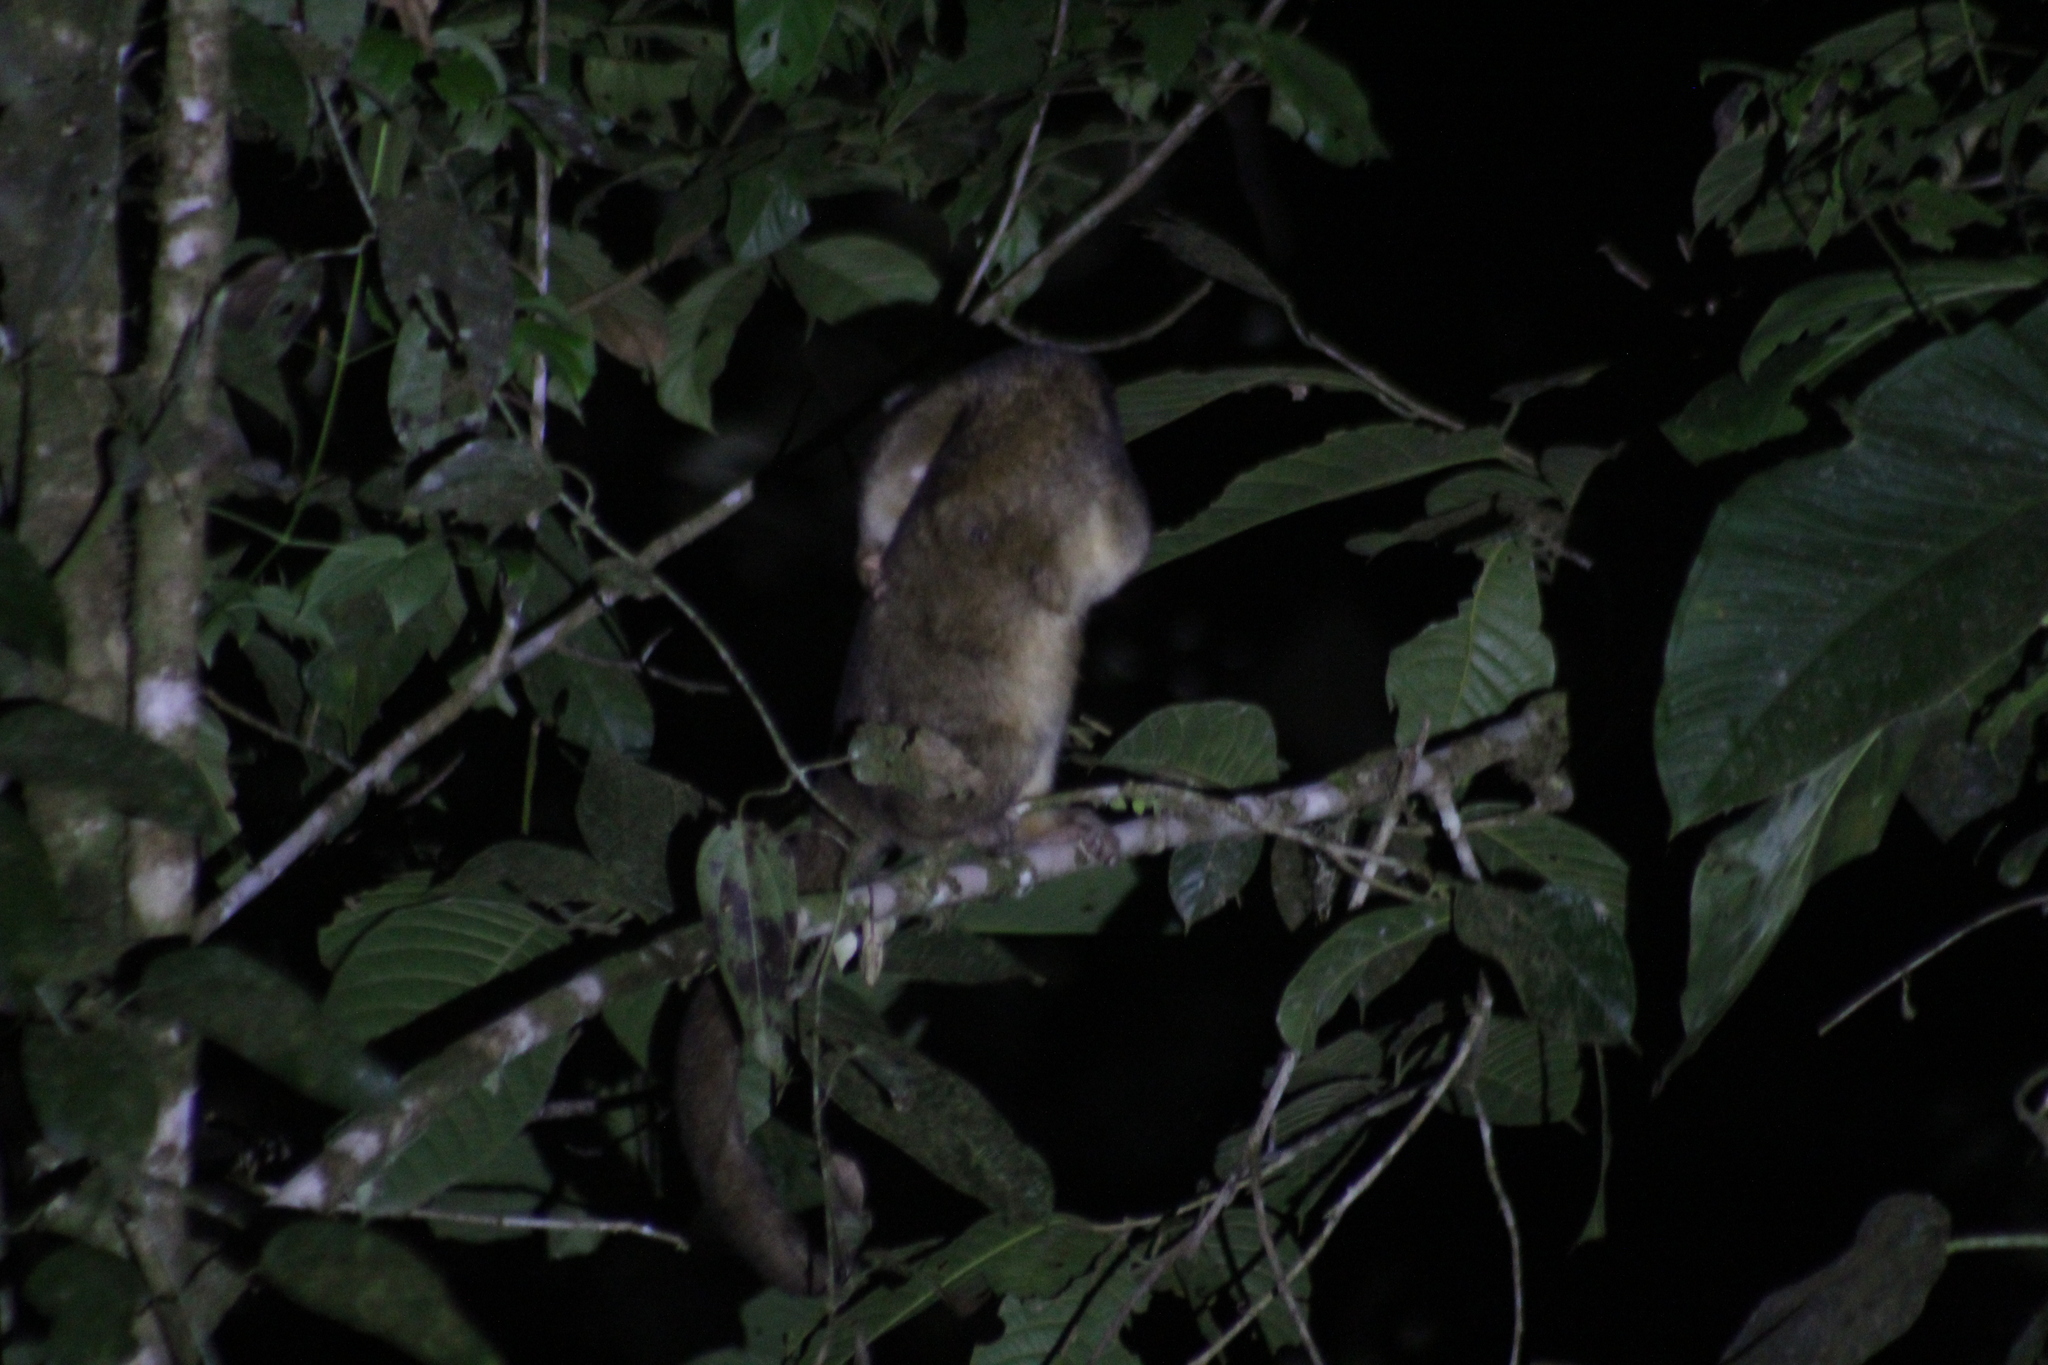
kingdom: Animalia
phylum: Chordata
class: Mammalia
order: Carnivora
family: Procyonidae
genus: Potos
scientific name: Potos flavus
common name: Kinkajou
